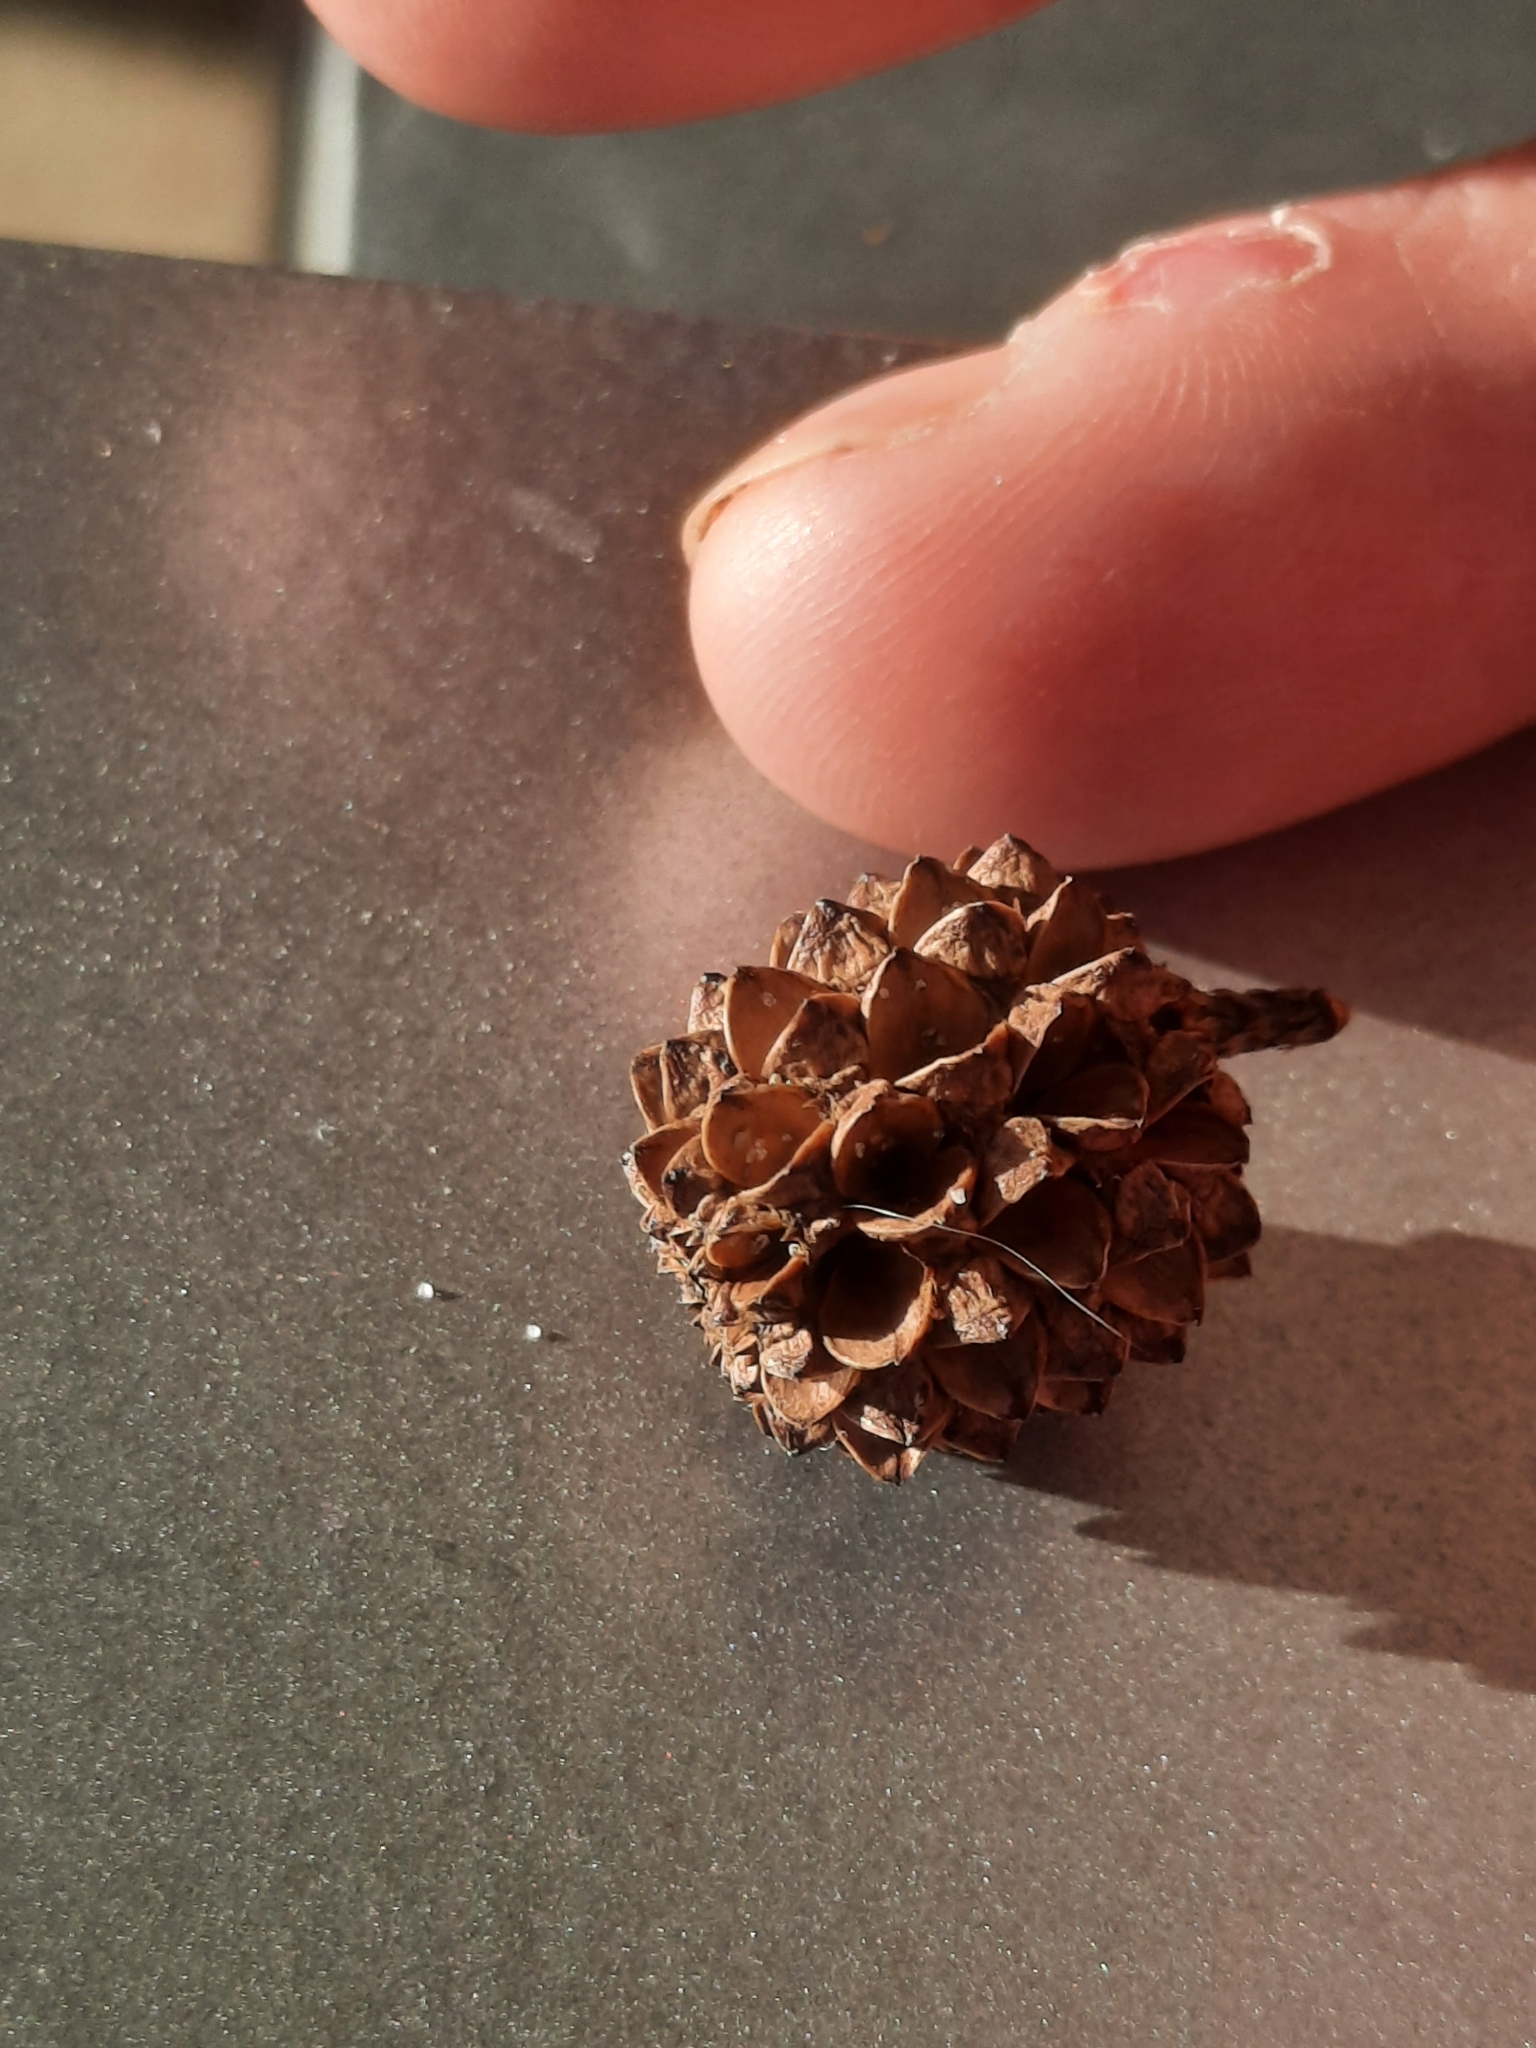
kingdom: Plantae
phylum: Tracheophyta
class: Magnoliopsida
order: Fagales
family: Casuarinaceae
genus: Casuarina
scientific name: Casuarina equisetifolia
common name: Beach sheoak
